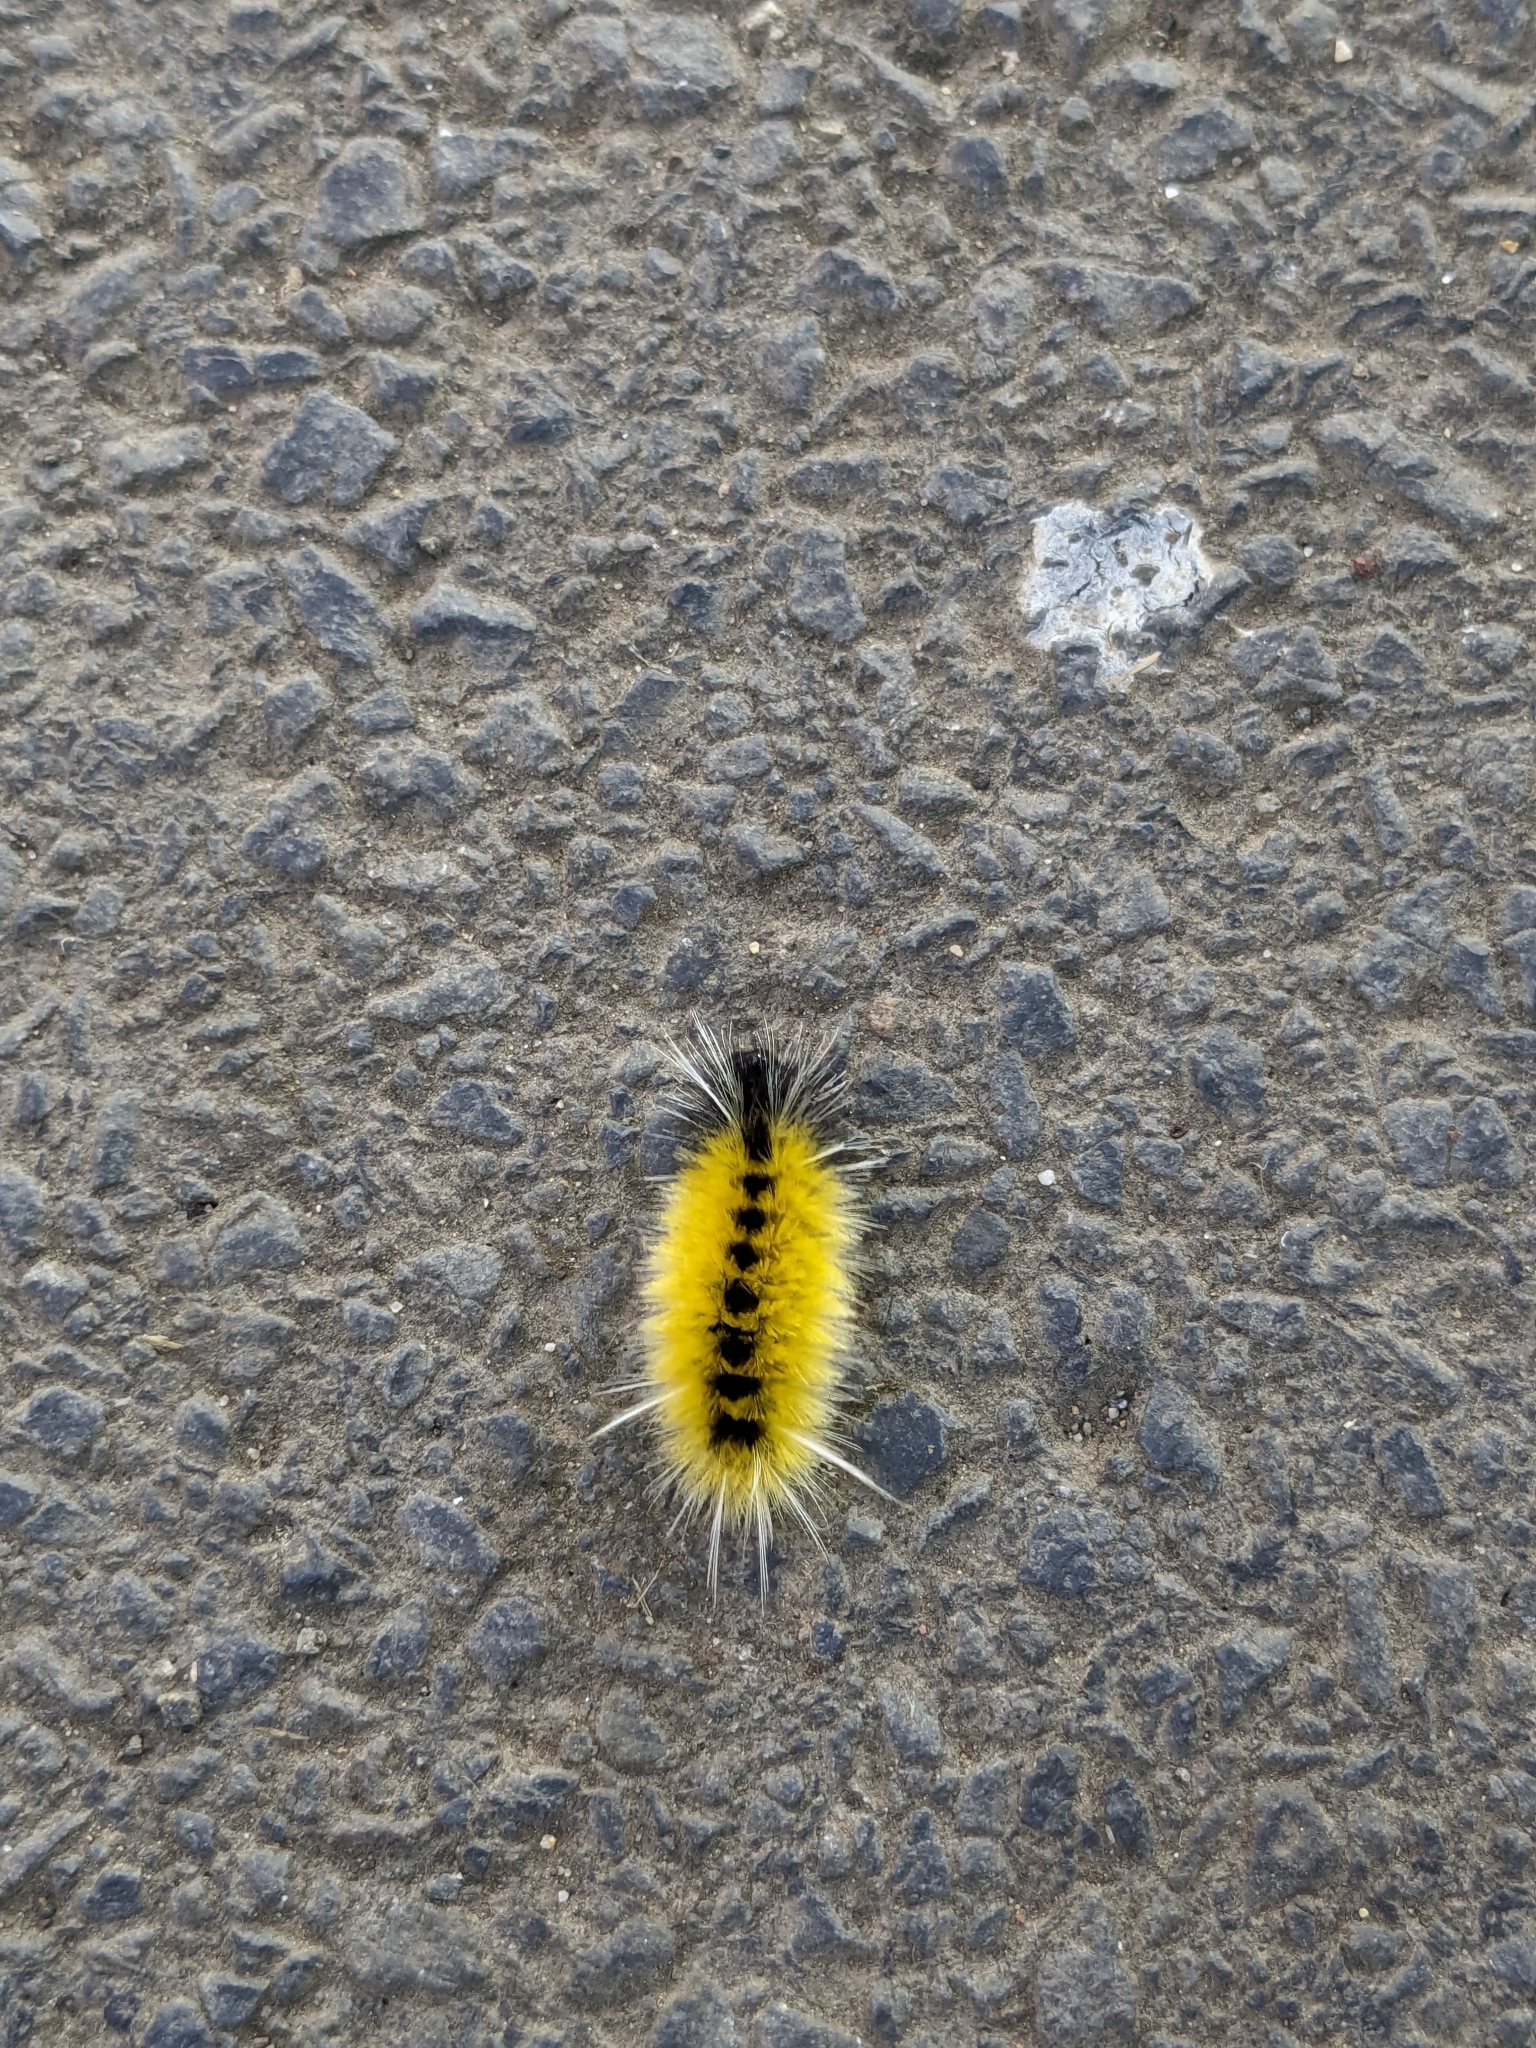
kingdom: Animalia
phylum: Arthropoda
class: Insecta
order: Lepidoptera
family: Erebidae
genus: Lophocampa
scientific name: Lophocampa maculata
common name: Spotted tussock moth
